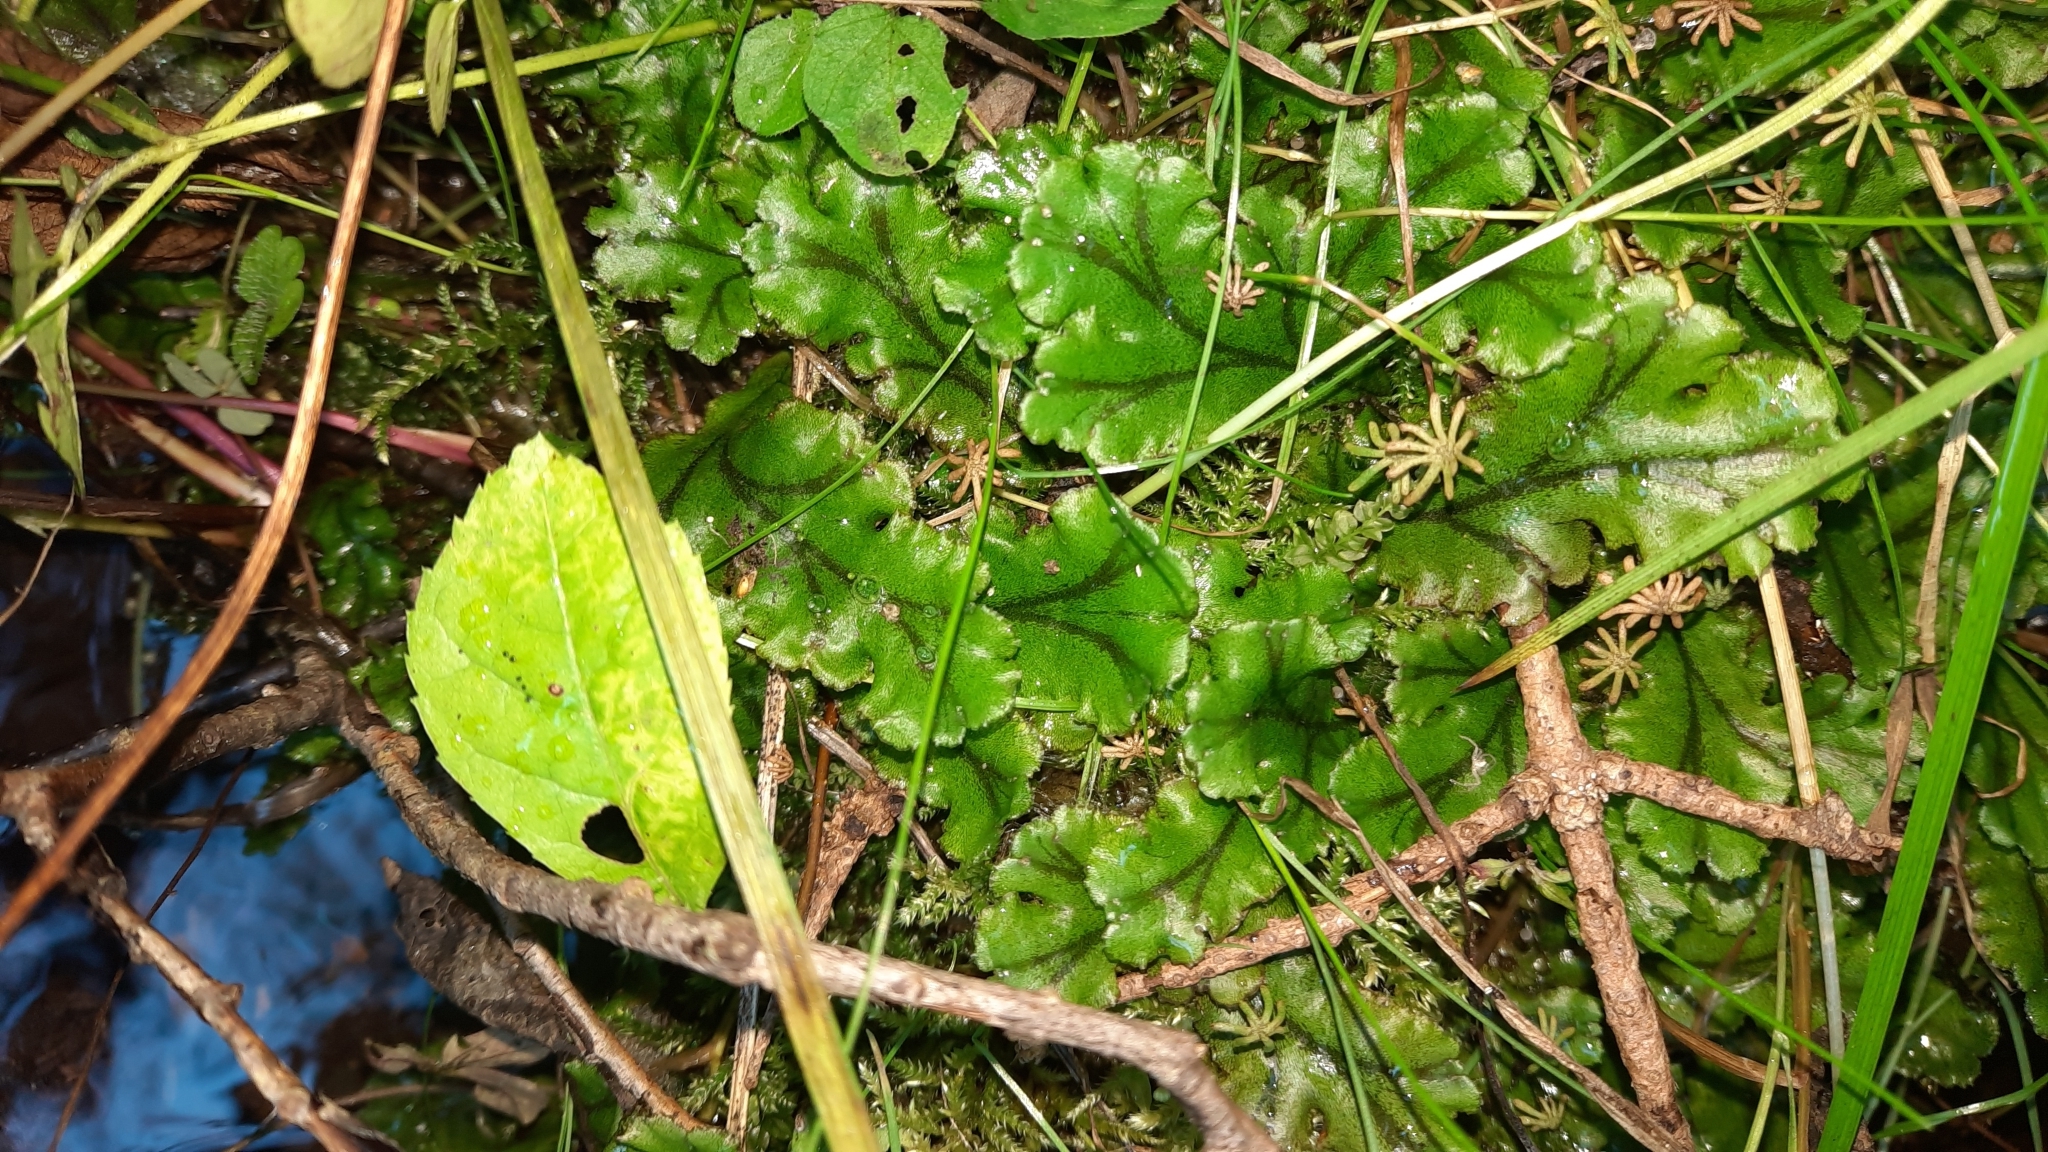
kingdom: Plantae
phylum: Marchantiophyta
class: Marchantiopsida
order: Marchantiales
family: Marchantiaceae
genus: Marchantia
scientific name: Marchantia polymorpha
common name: Common liverwort
